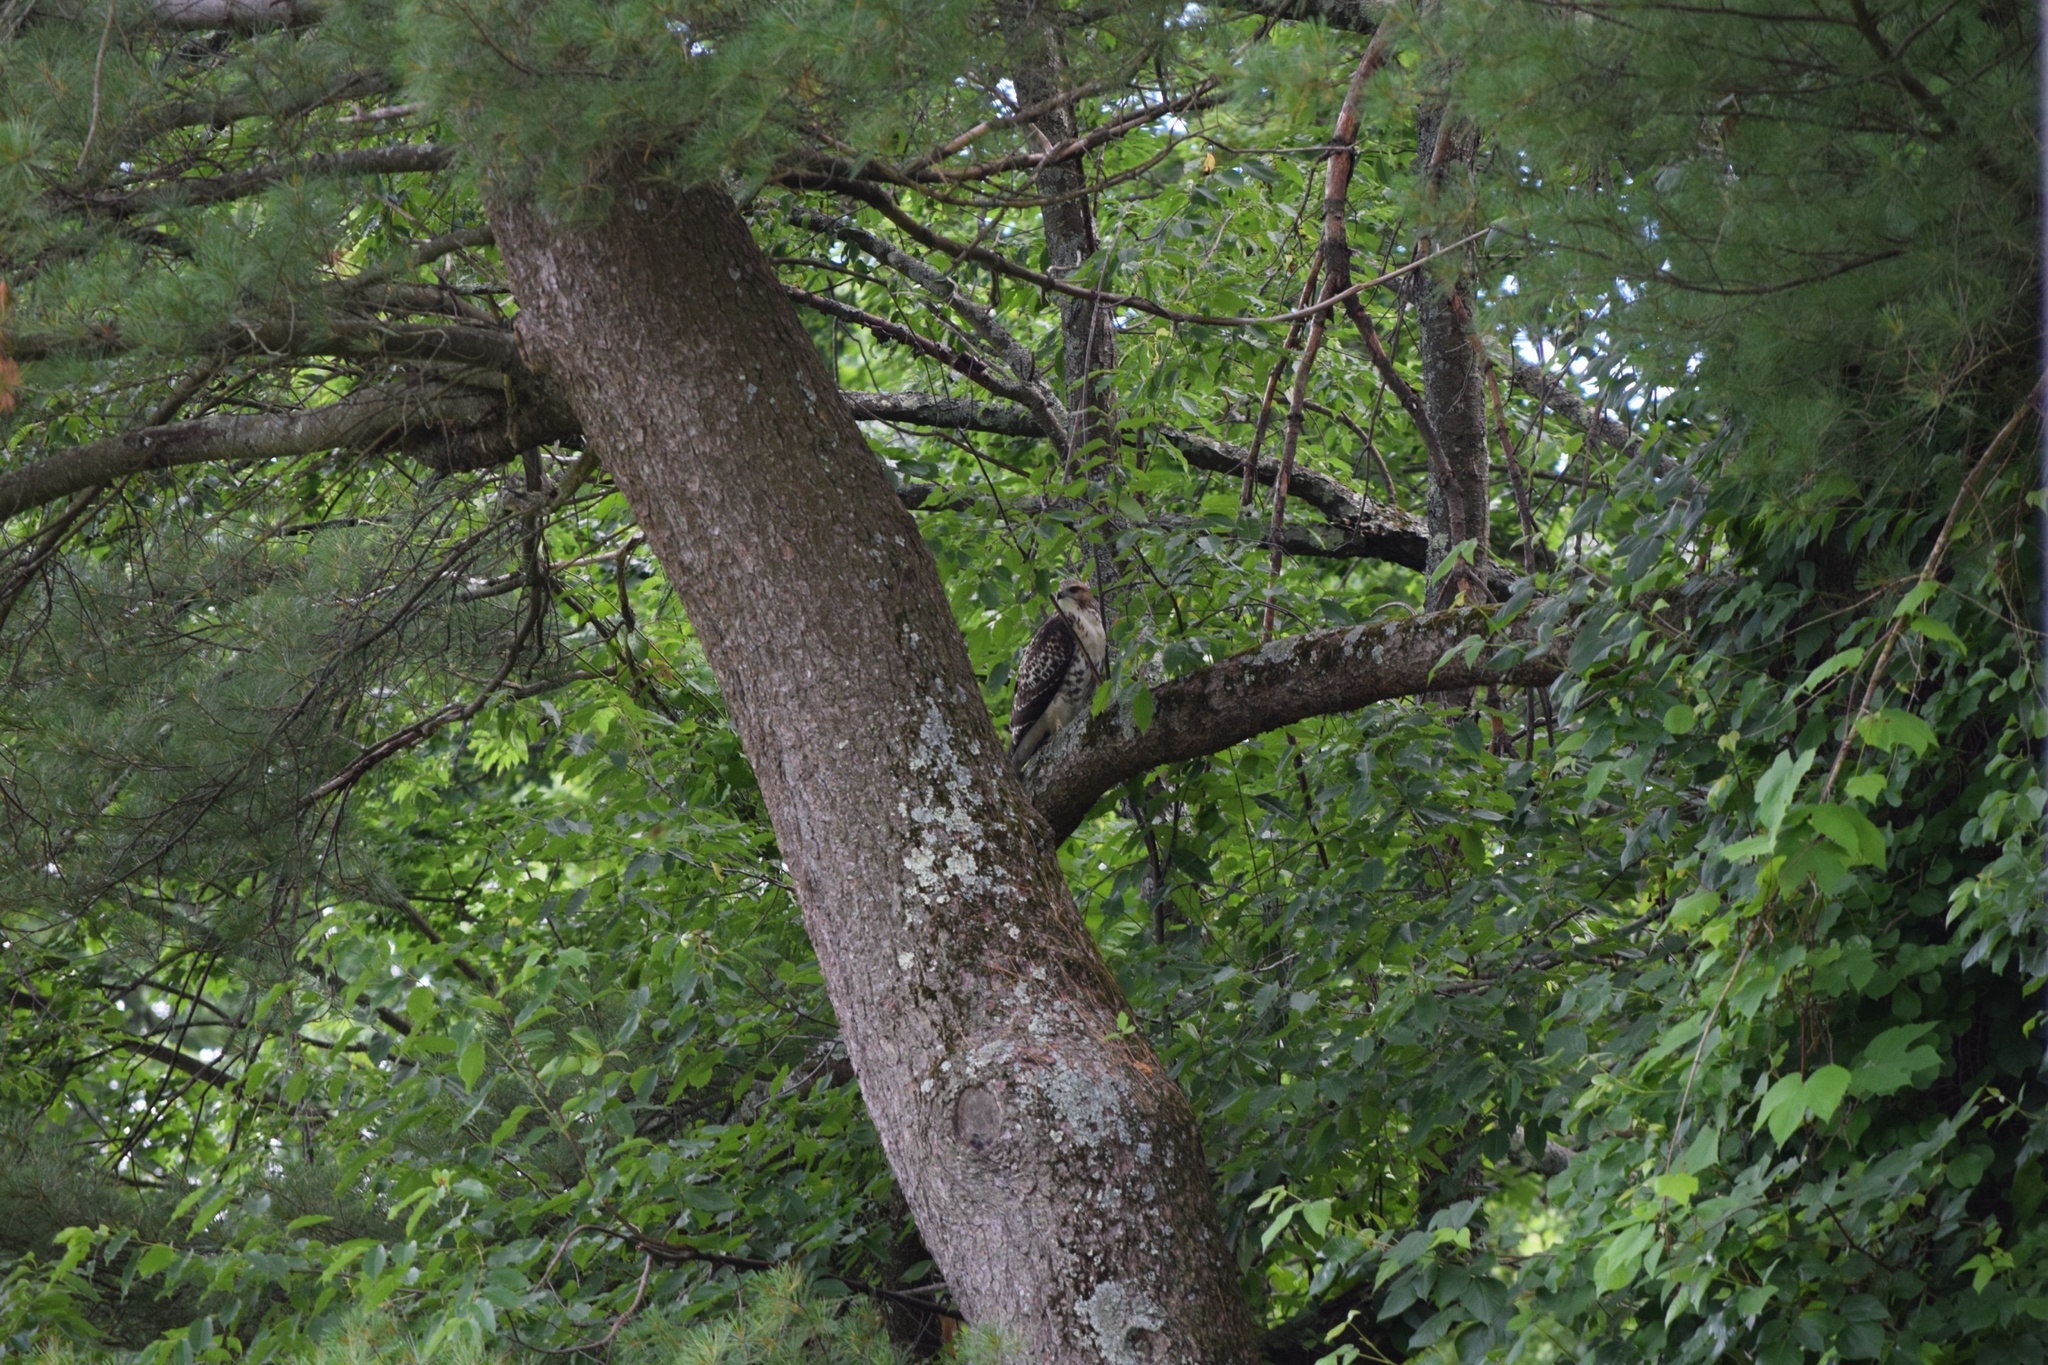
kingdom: Animalia
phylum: Chordata
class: Aves
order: Accipitriformes
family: Accipitridae
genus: Buteo
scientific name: Buteo jamaicensis
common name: Red-tailed hawk
